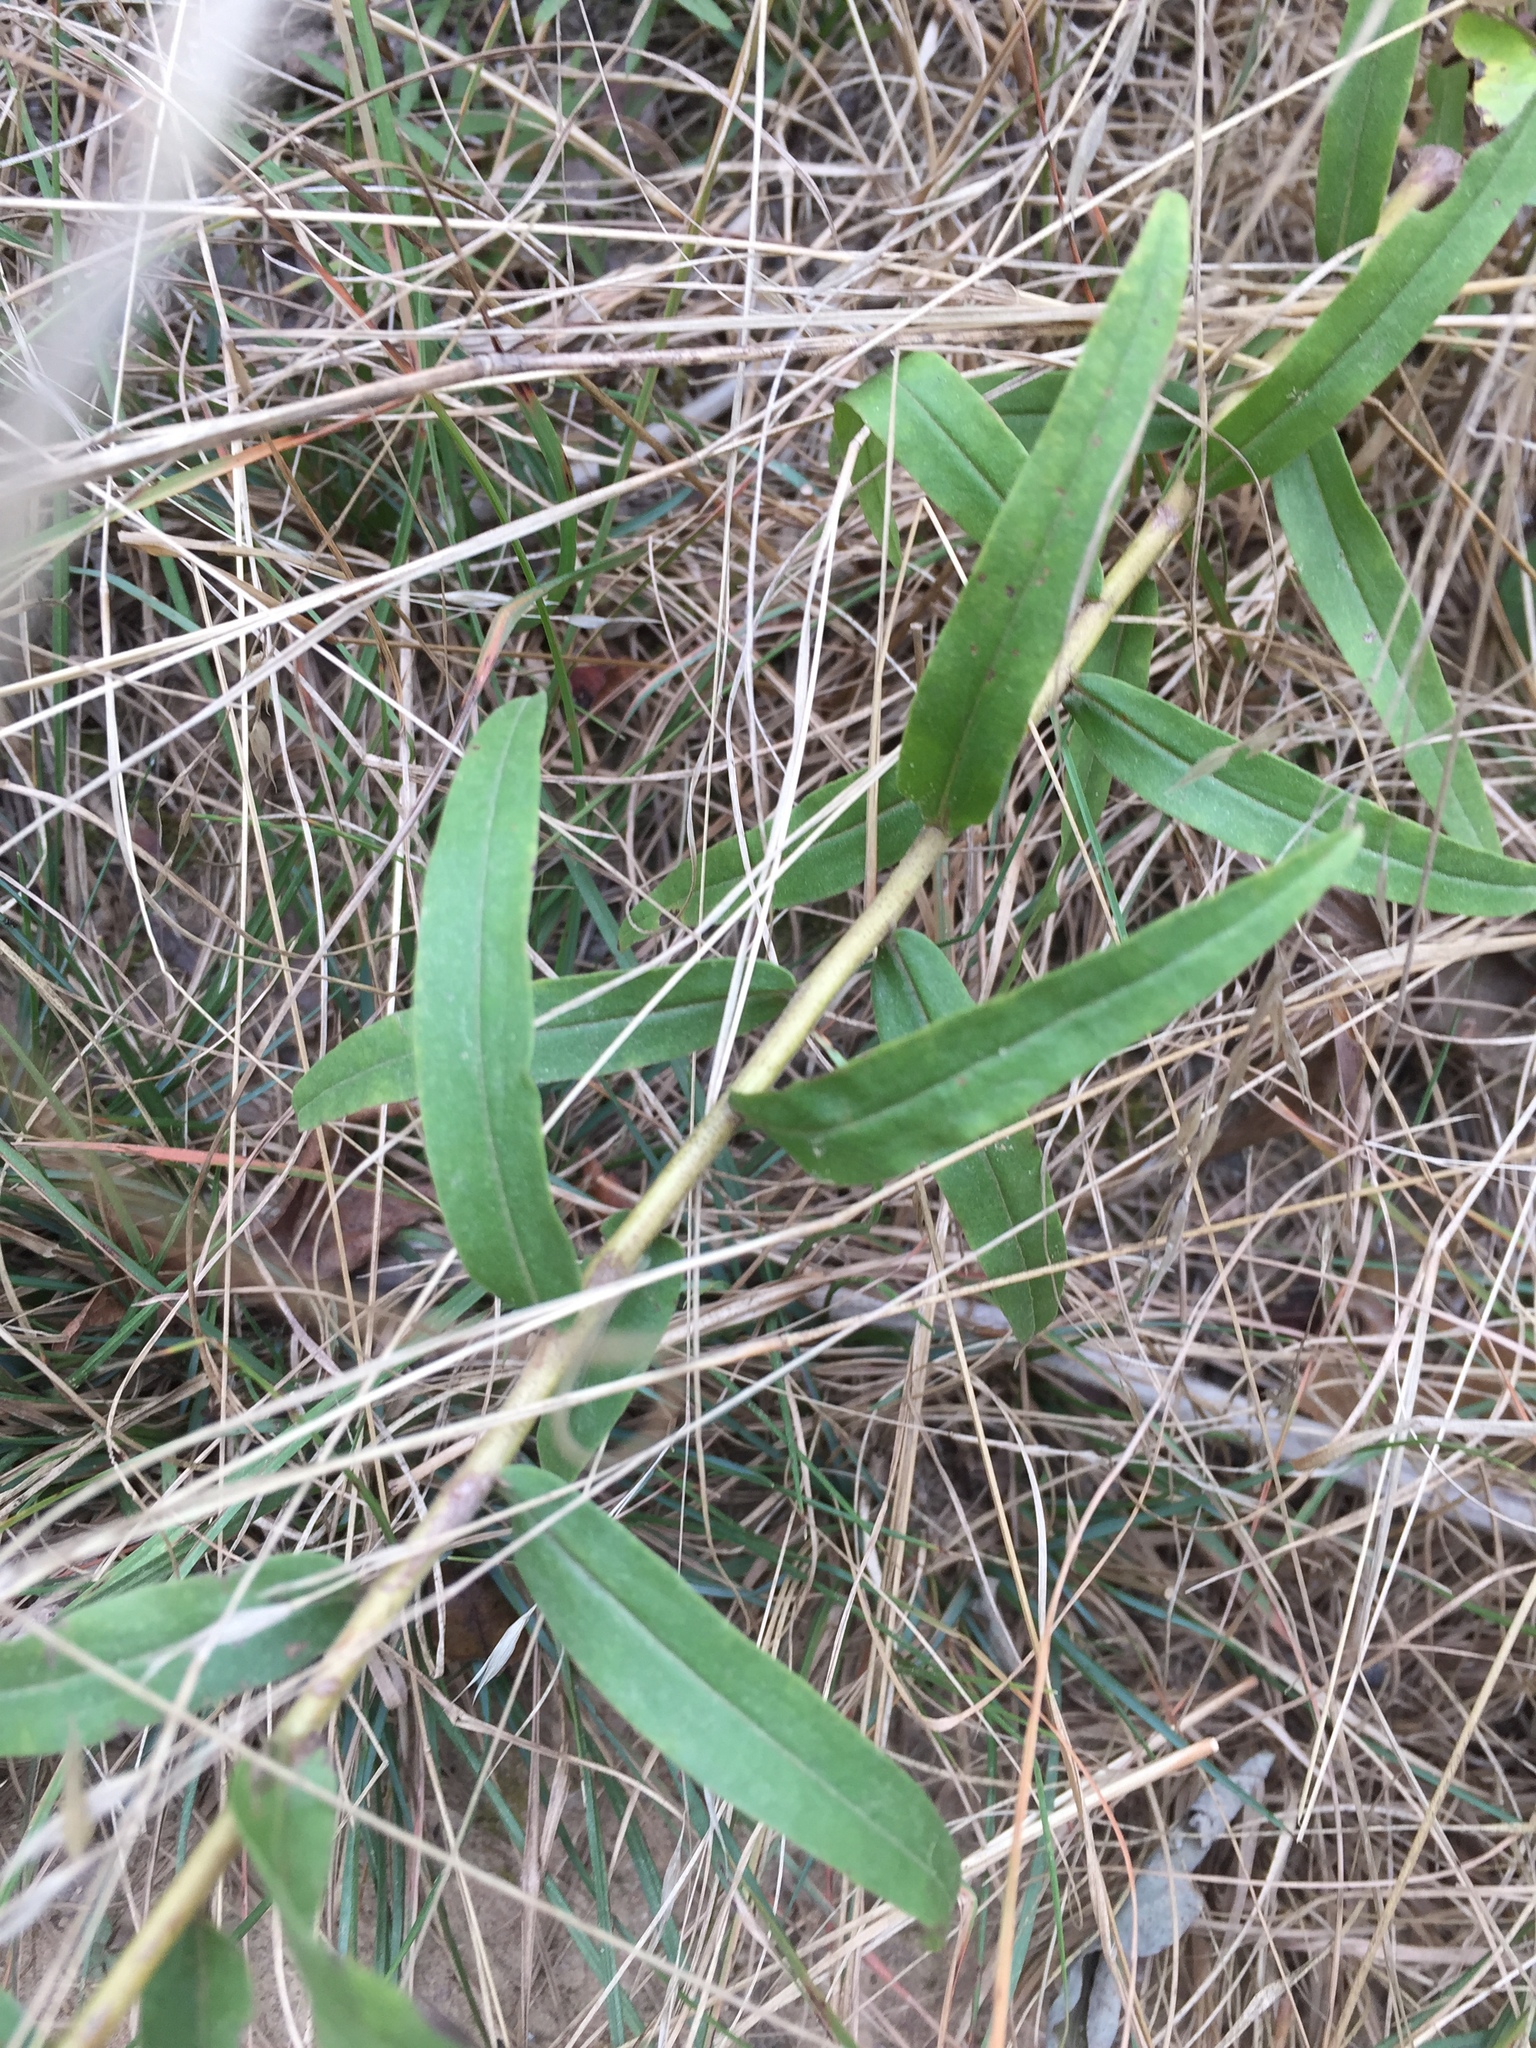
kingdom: Plantae
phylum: Tracheophyta
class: Magnoliopsida
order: Asterales
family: Asteraceae
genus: Solidago
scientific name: Solidago odora
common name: Anise-scented goldenrod
